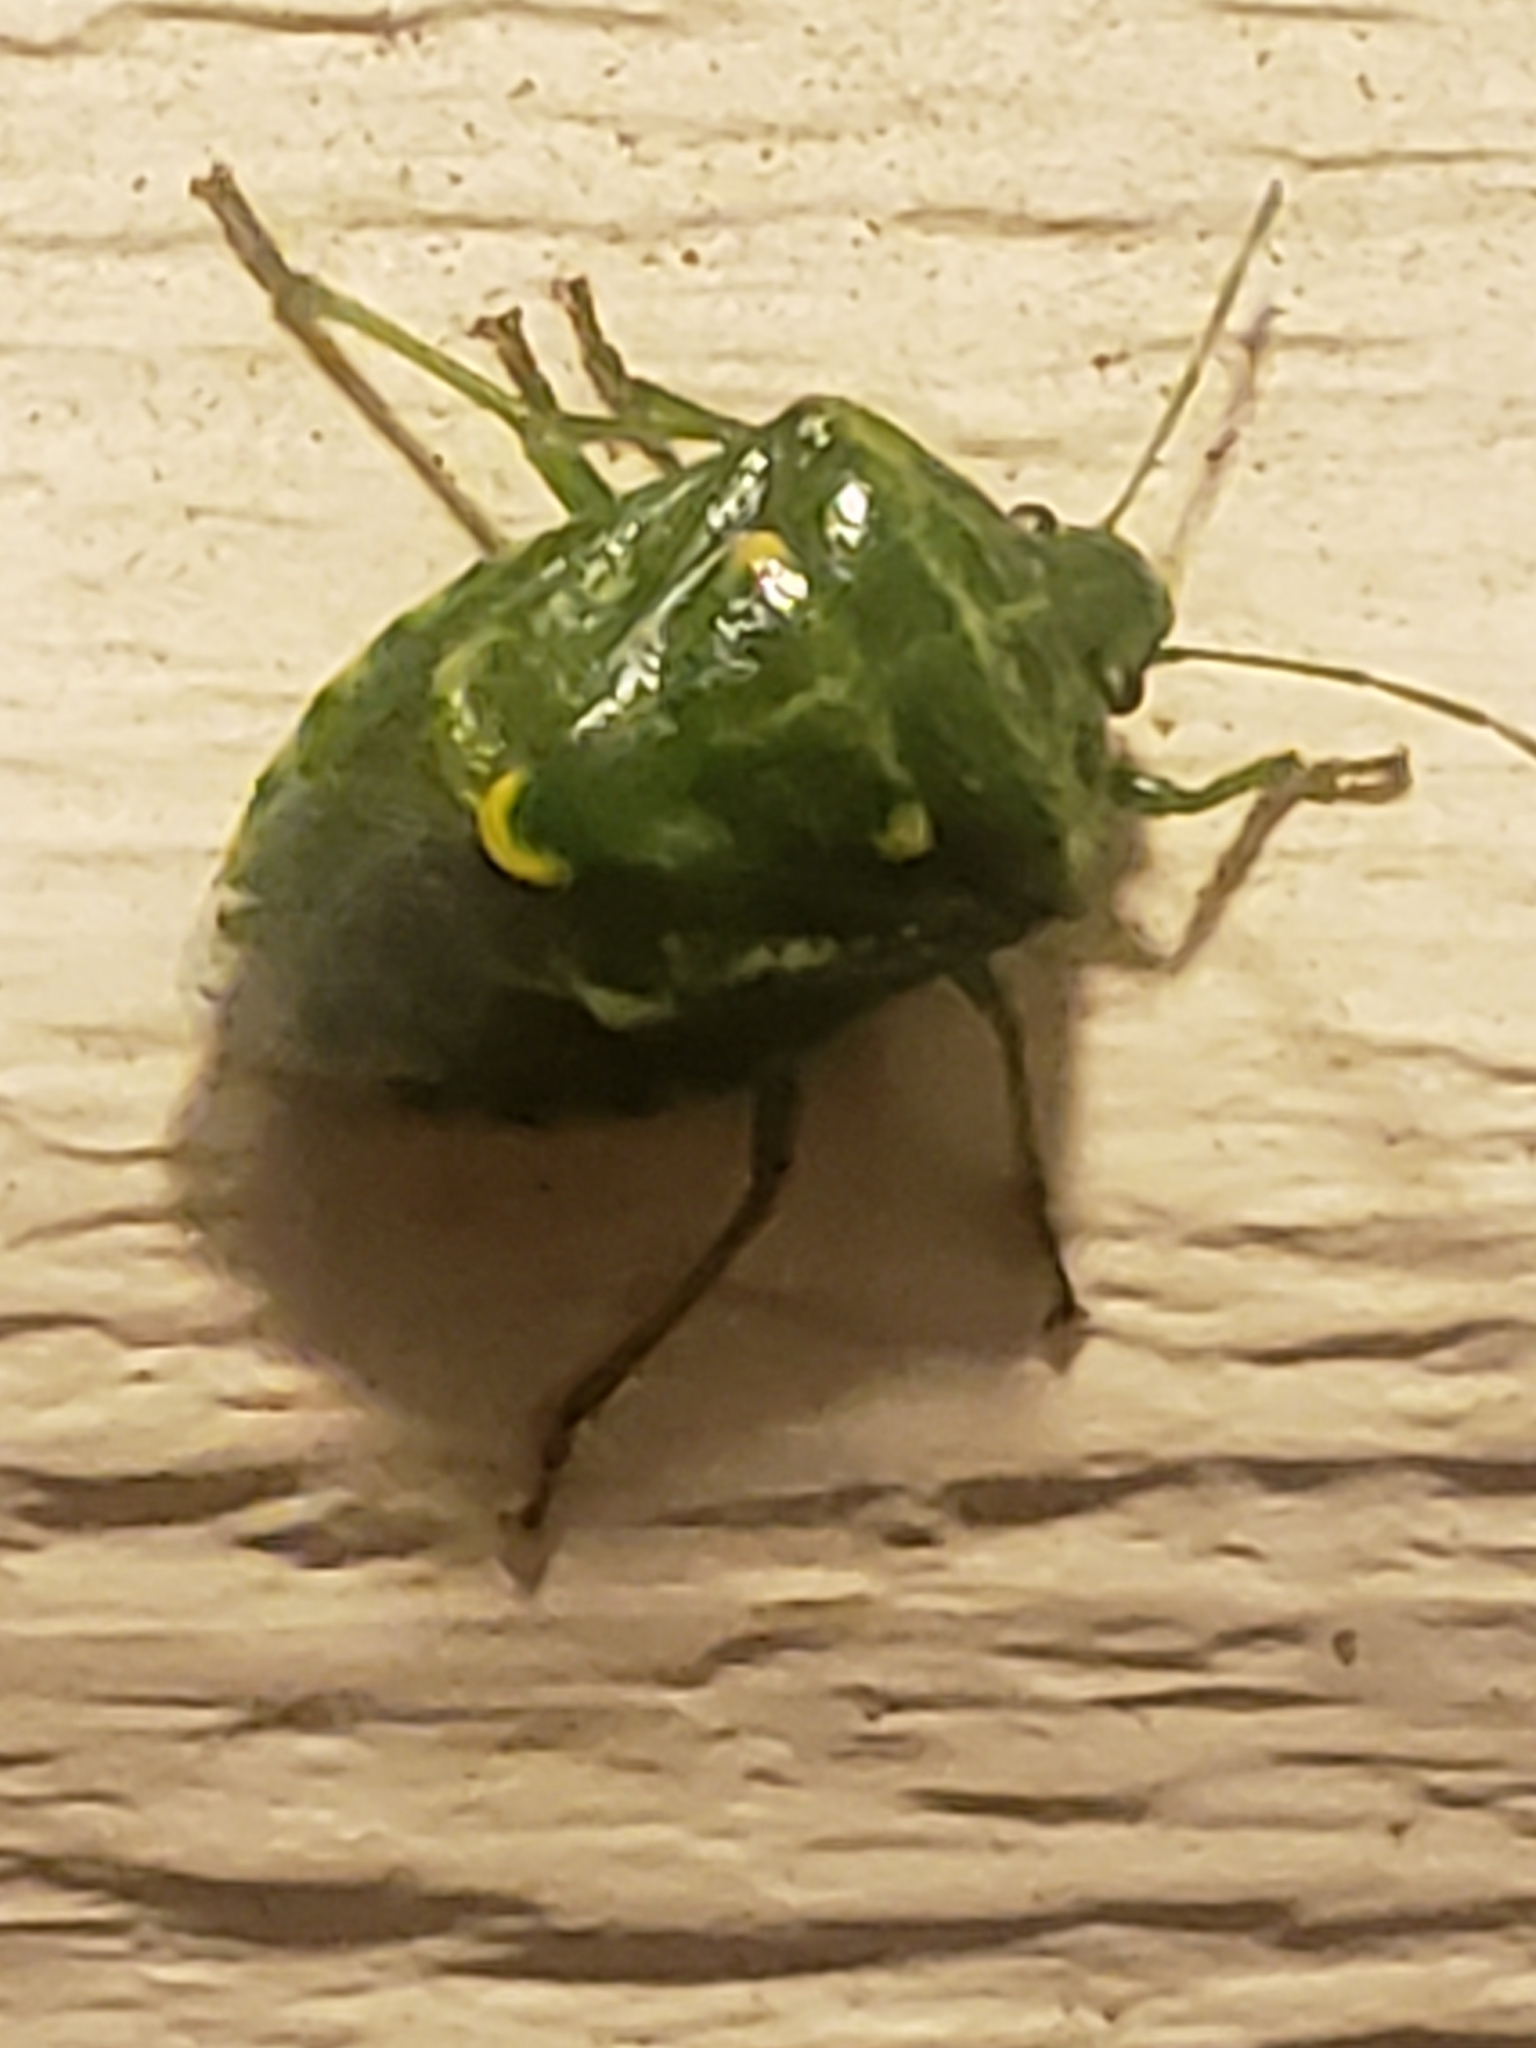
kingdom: Animalia
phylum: Arthropoda
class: Insecta
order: Hemiptera
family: Pentatomidae
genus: Banasa
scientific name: Banasa euchlora
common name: Cedar berry bug
